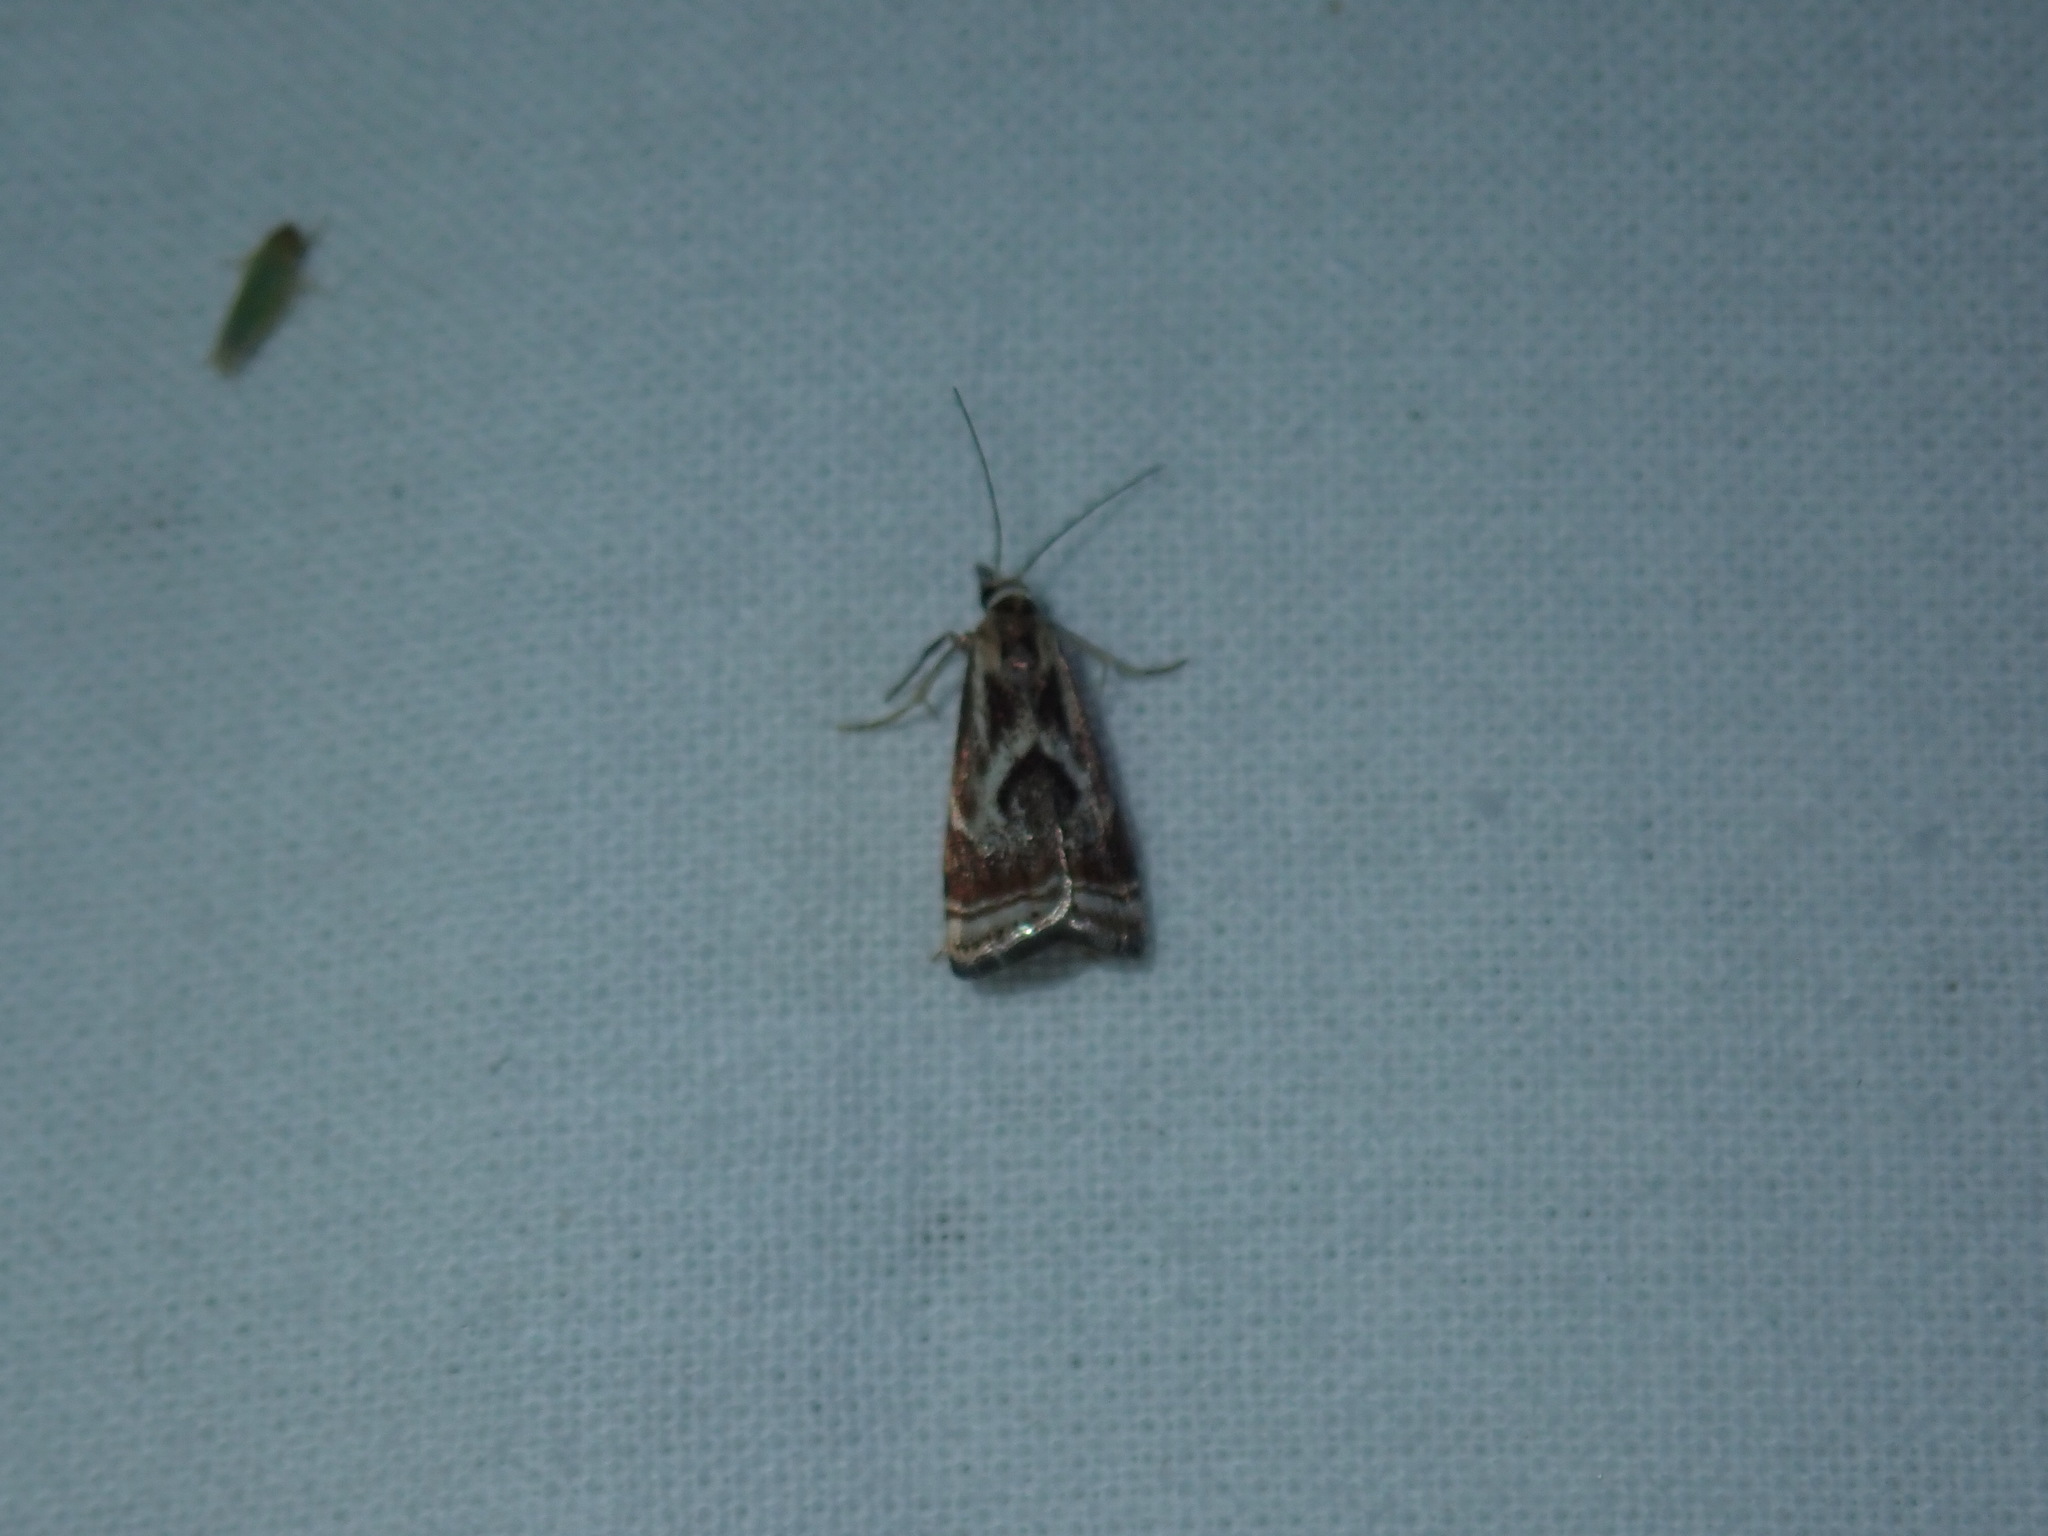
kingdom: Animalia
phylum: Arthropoda
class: Insecta
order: Lepidoptera
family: Crambidae
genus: Microcrambus
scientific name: Microcrambus elegans
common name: Elegant grass-veneer
